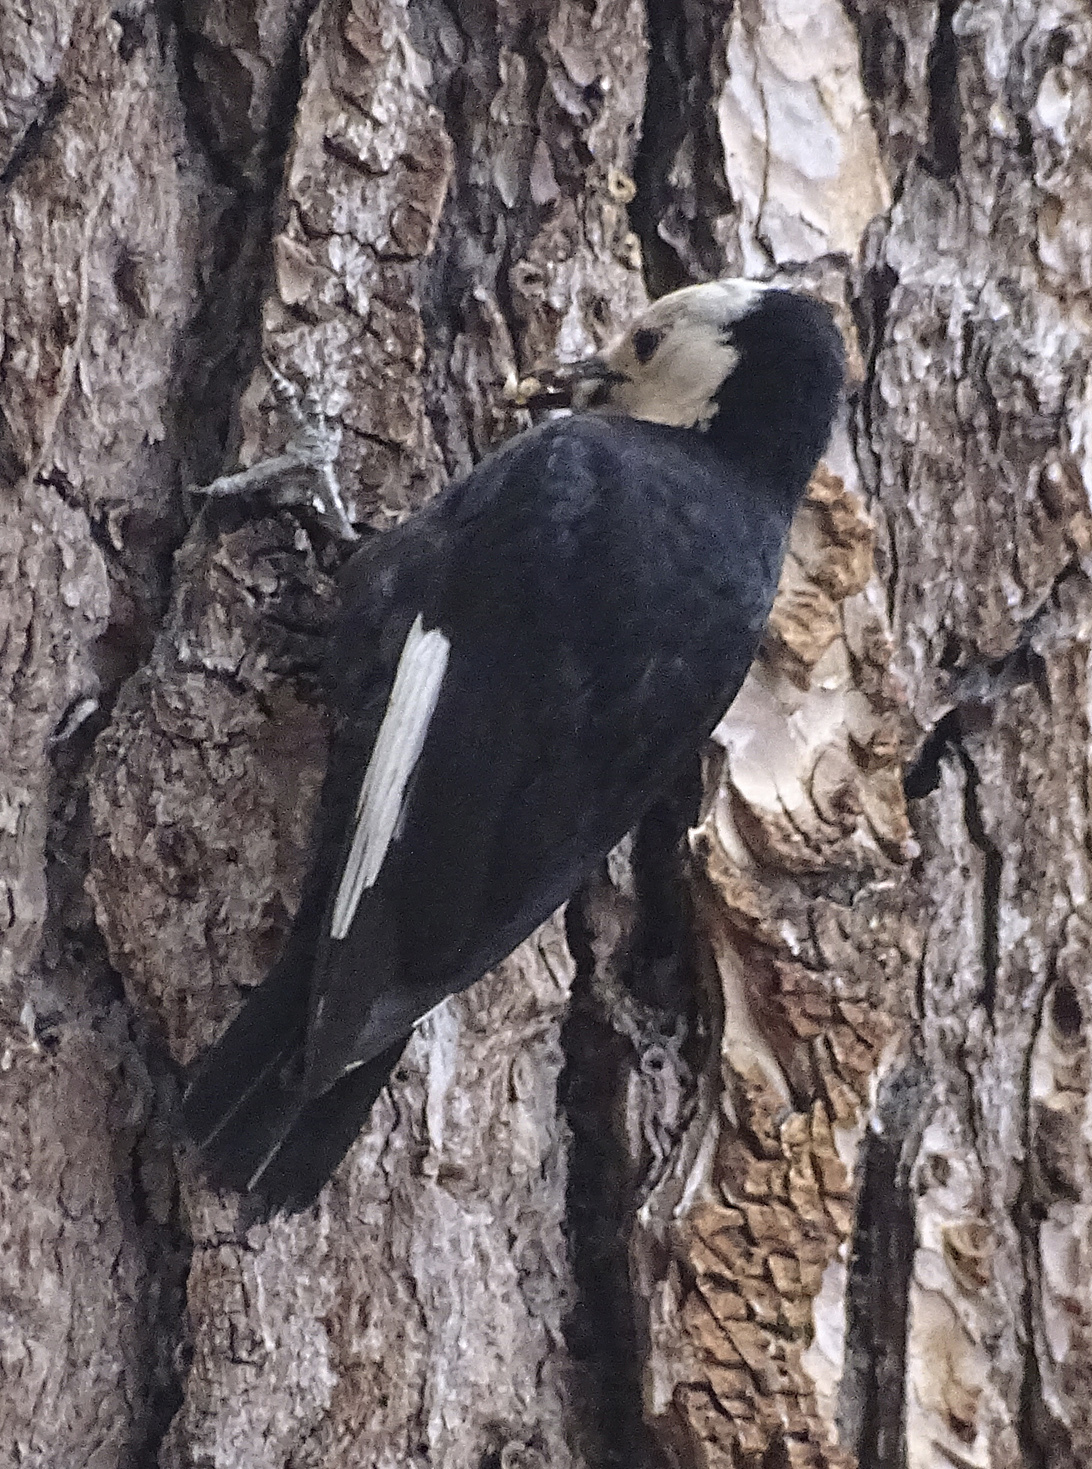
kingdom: Animalia
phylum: Chordata
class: Aves
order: Piciformes
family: Picidae
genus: Leuconotopicus
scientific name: Leuconotopicus albolarvatus
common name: White-headed woodpecker
